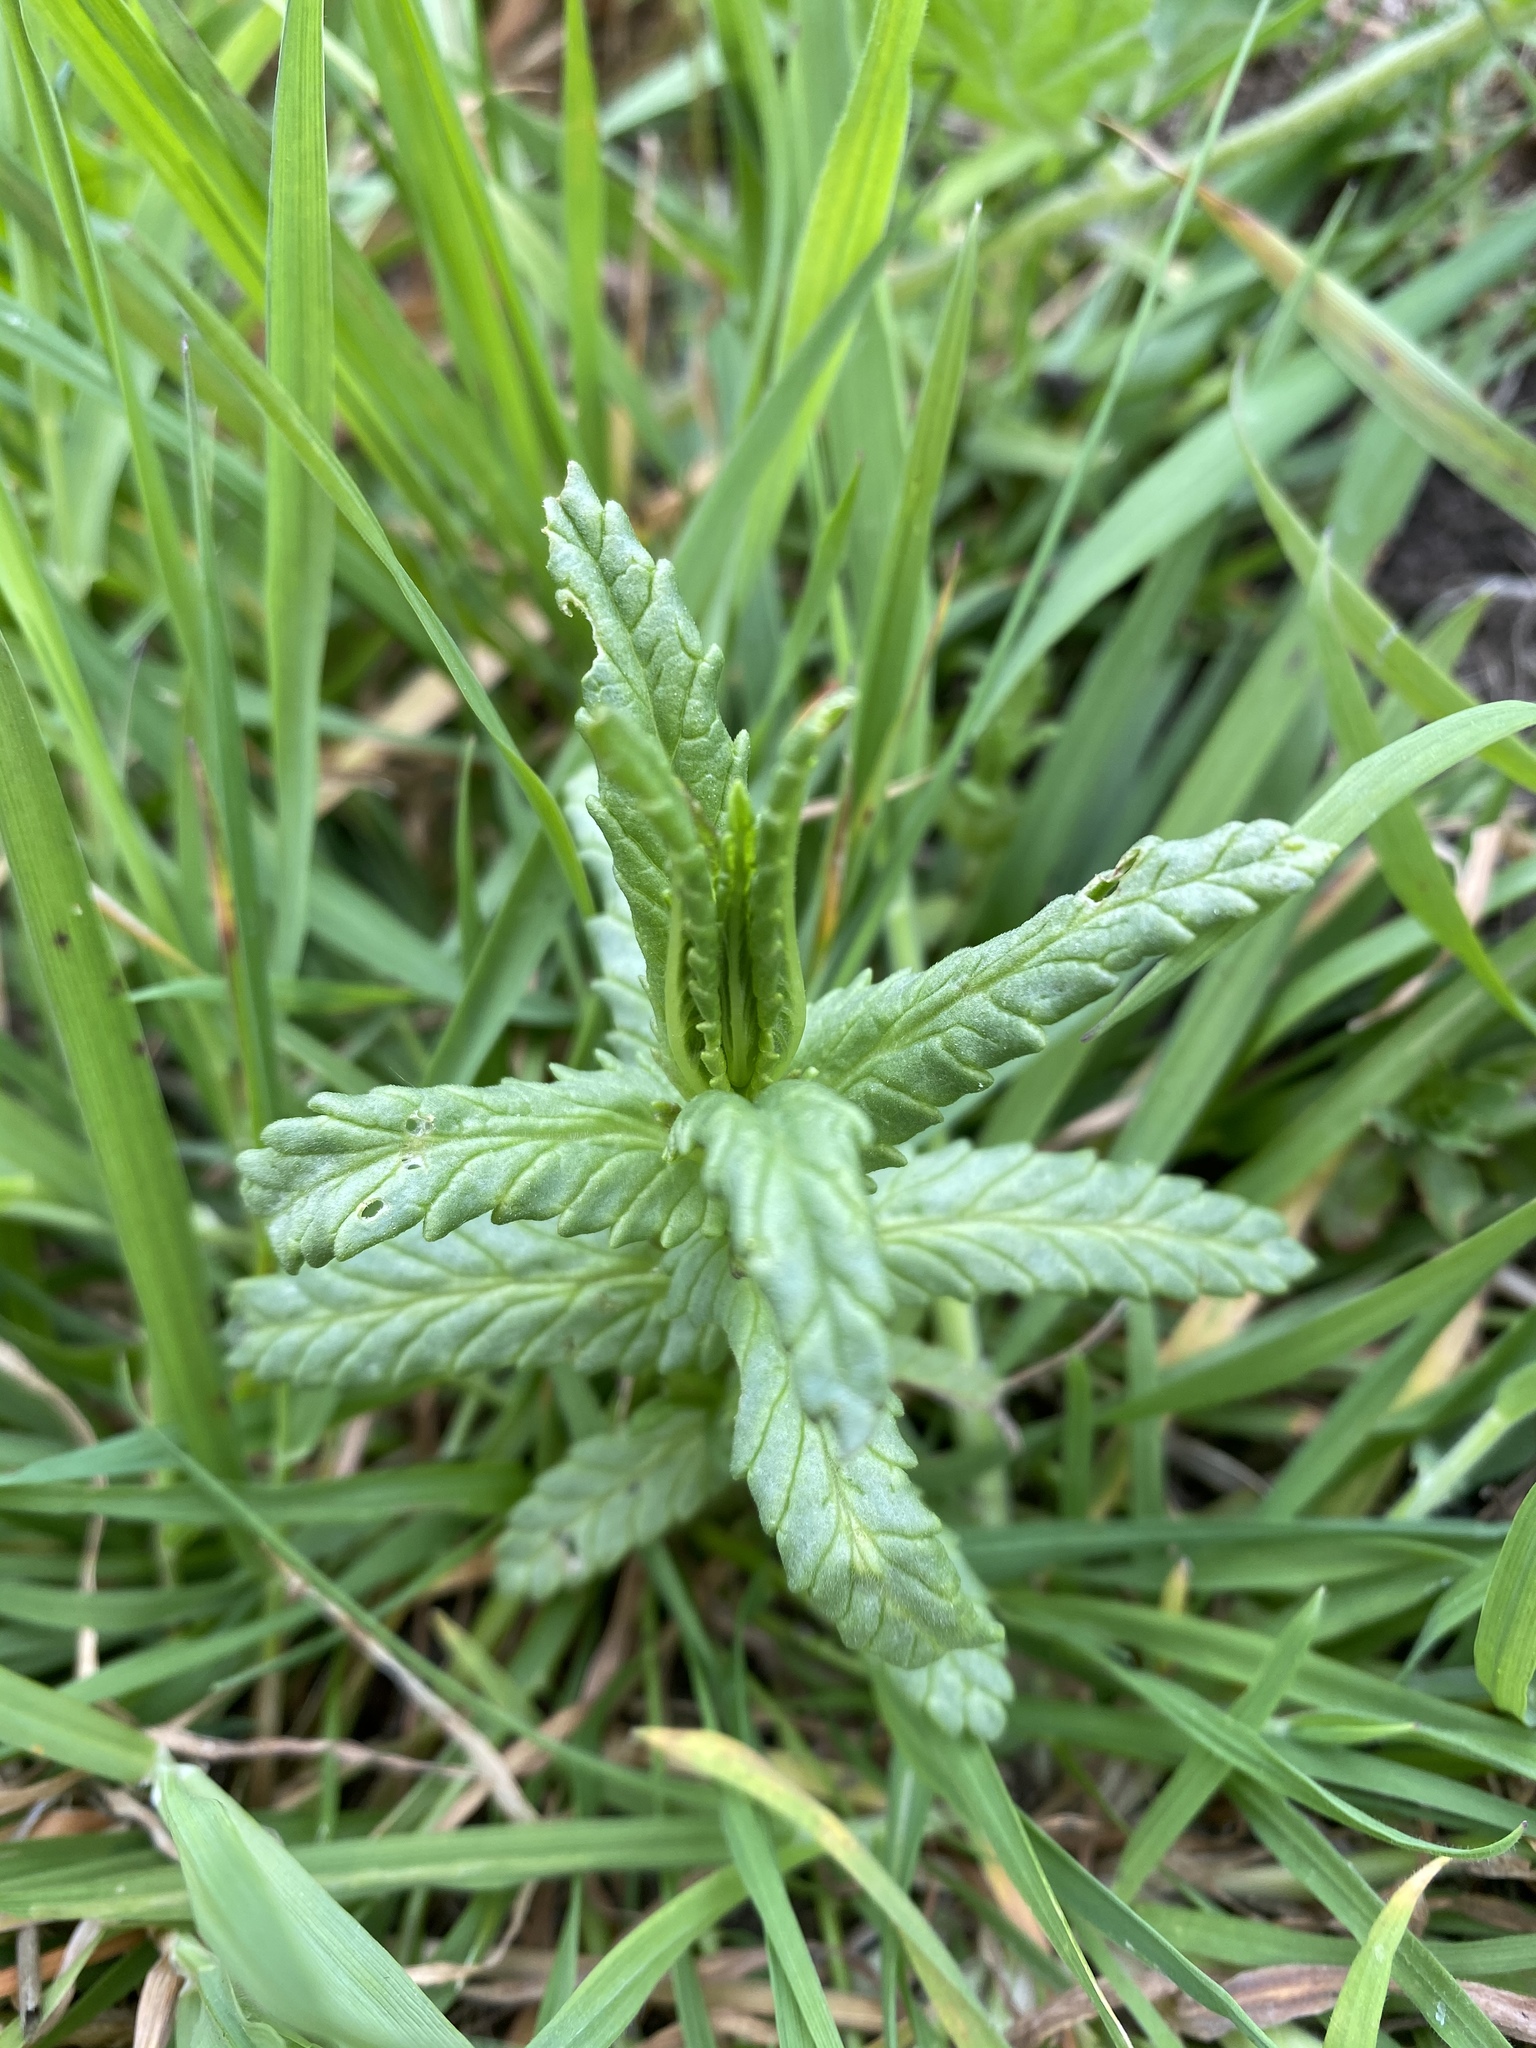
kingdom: Plantae
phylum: Tracheophyta
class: Magnoliopsida
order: Lamiales
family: Orobanchaceae
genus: Rhinanthus
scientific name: Rhinanthus minor
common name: Yellow-rattle
